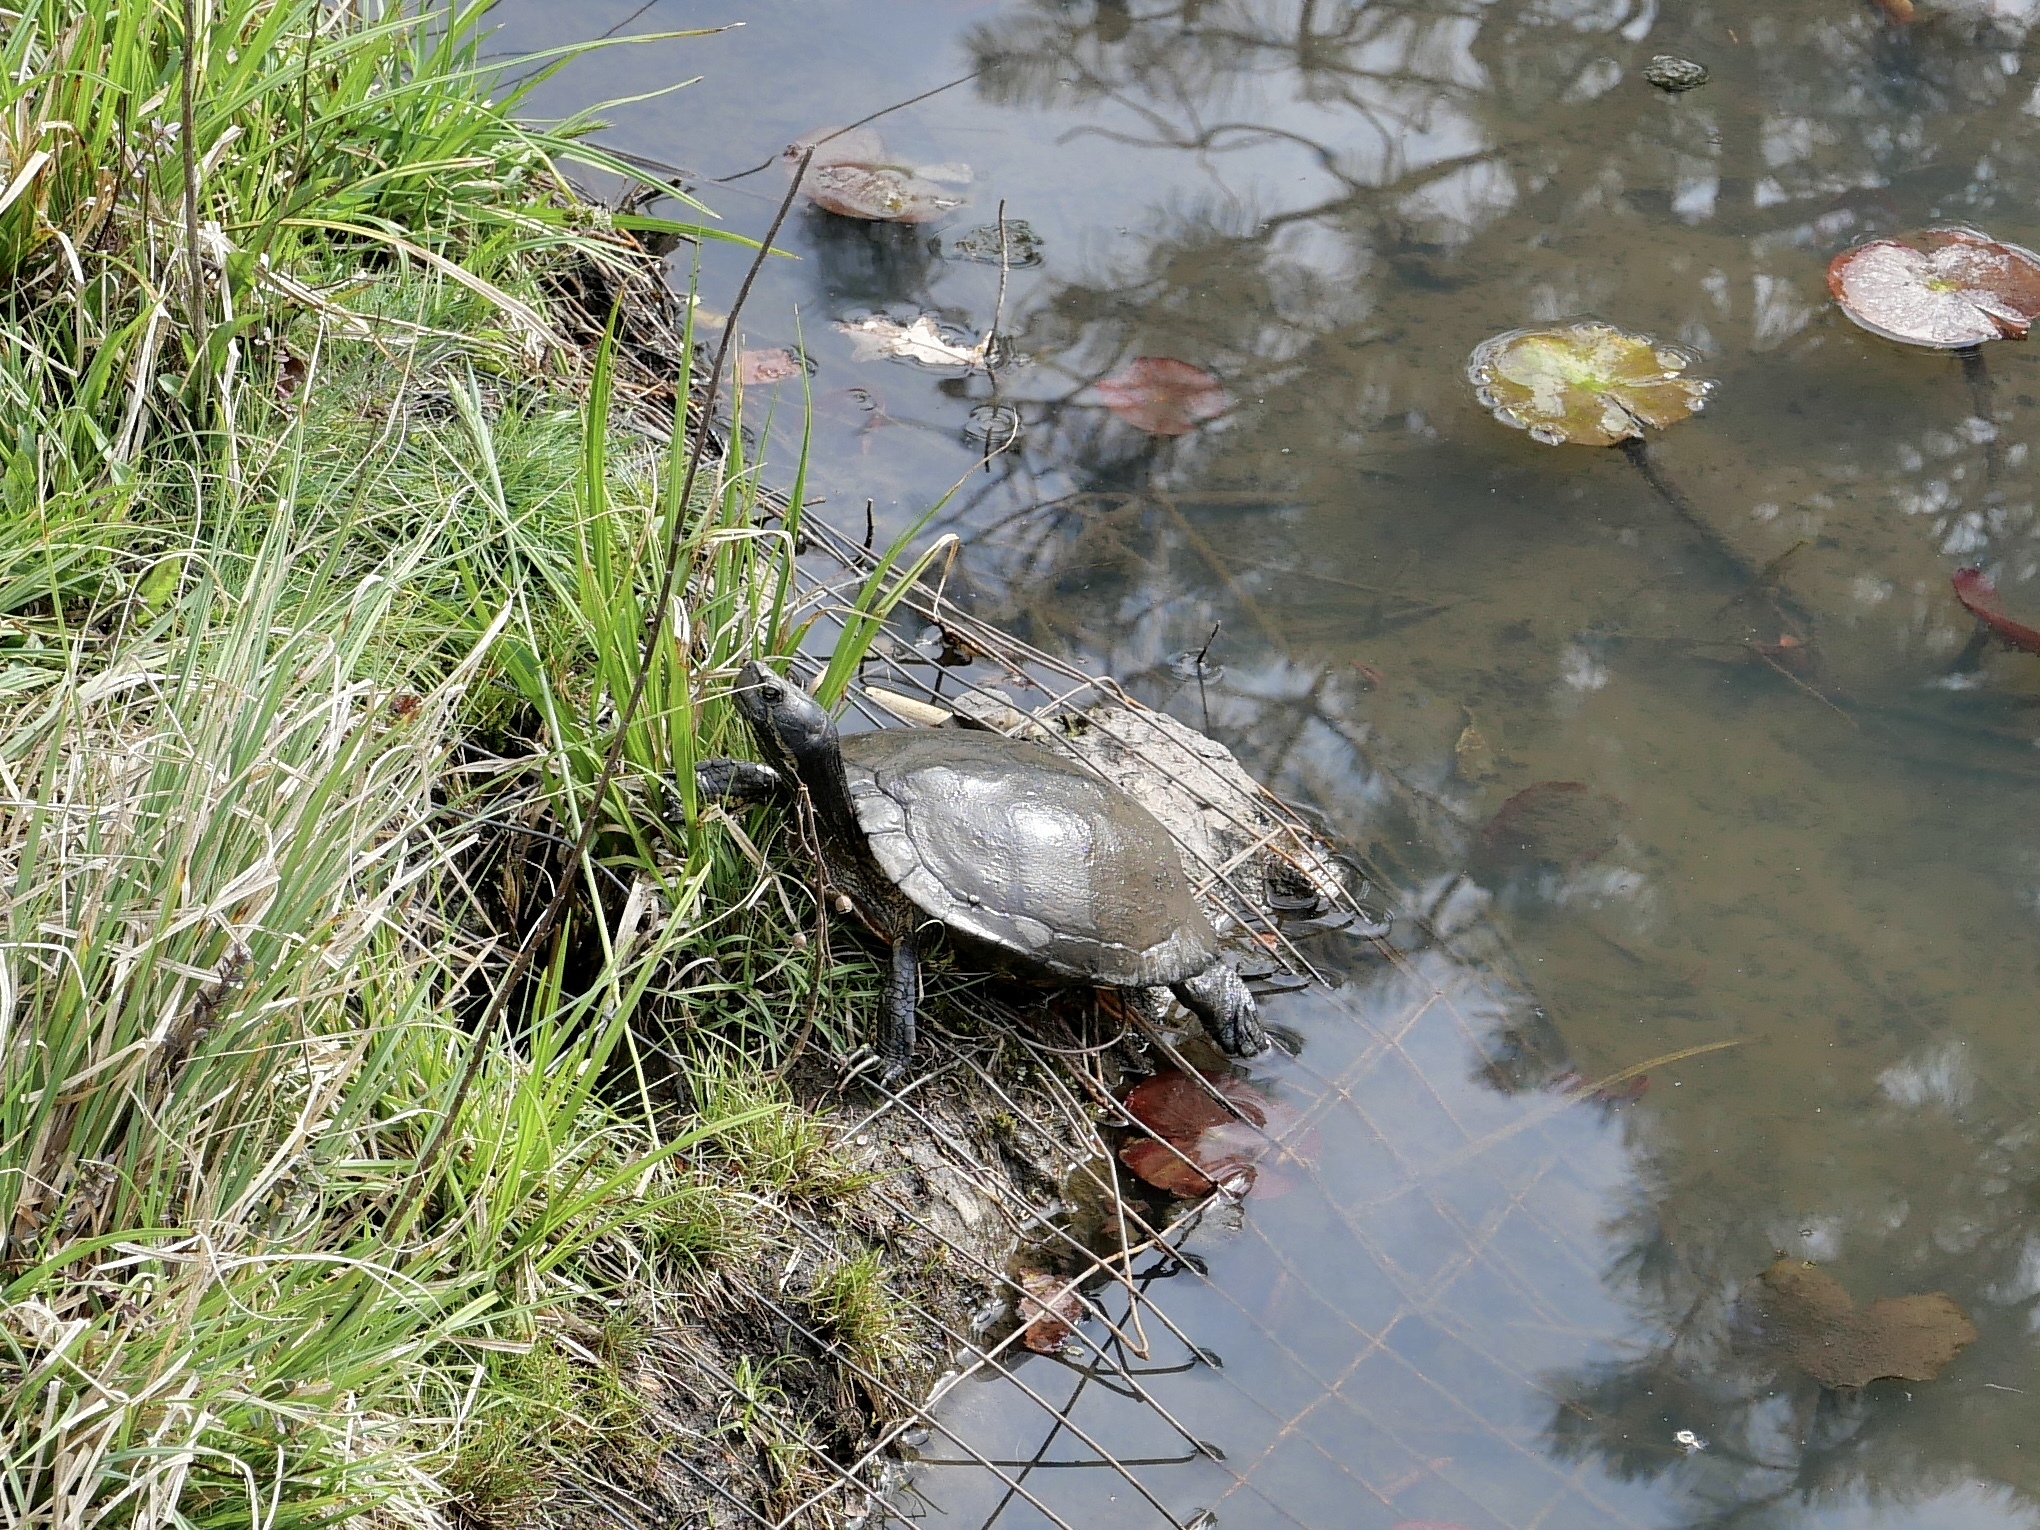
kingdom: Animalia
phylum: Chordata
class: Testudines
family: Emydidae
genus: Trachemys
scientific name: Trachemys scripta
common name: Slider
